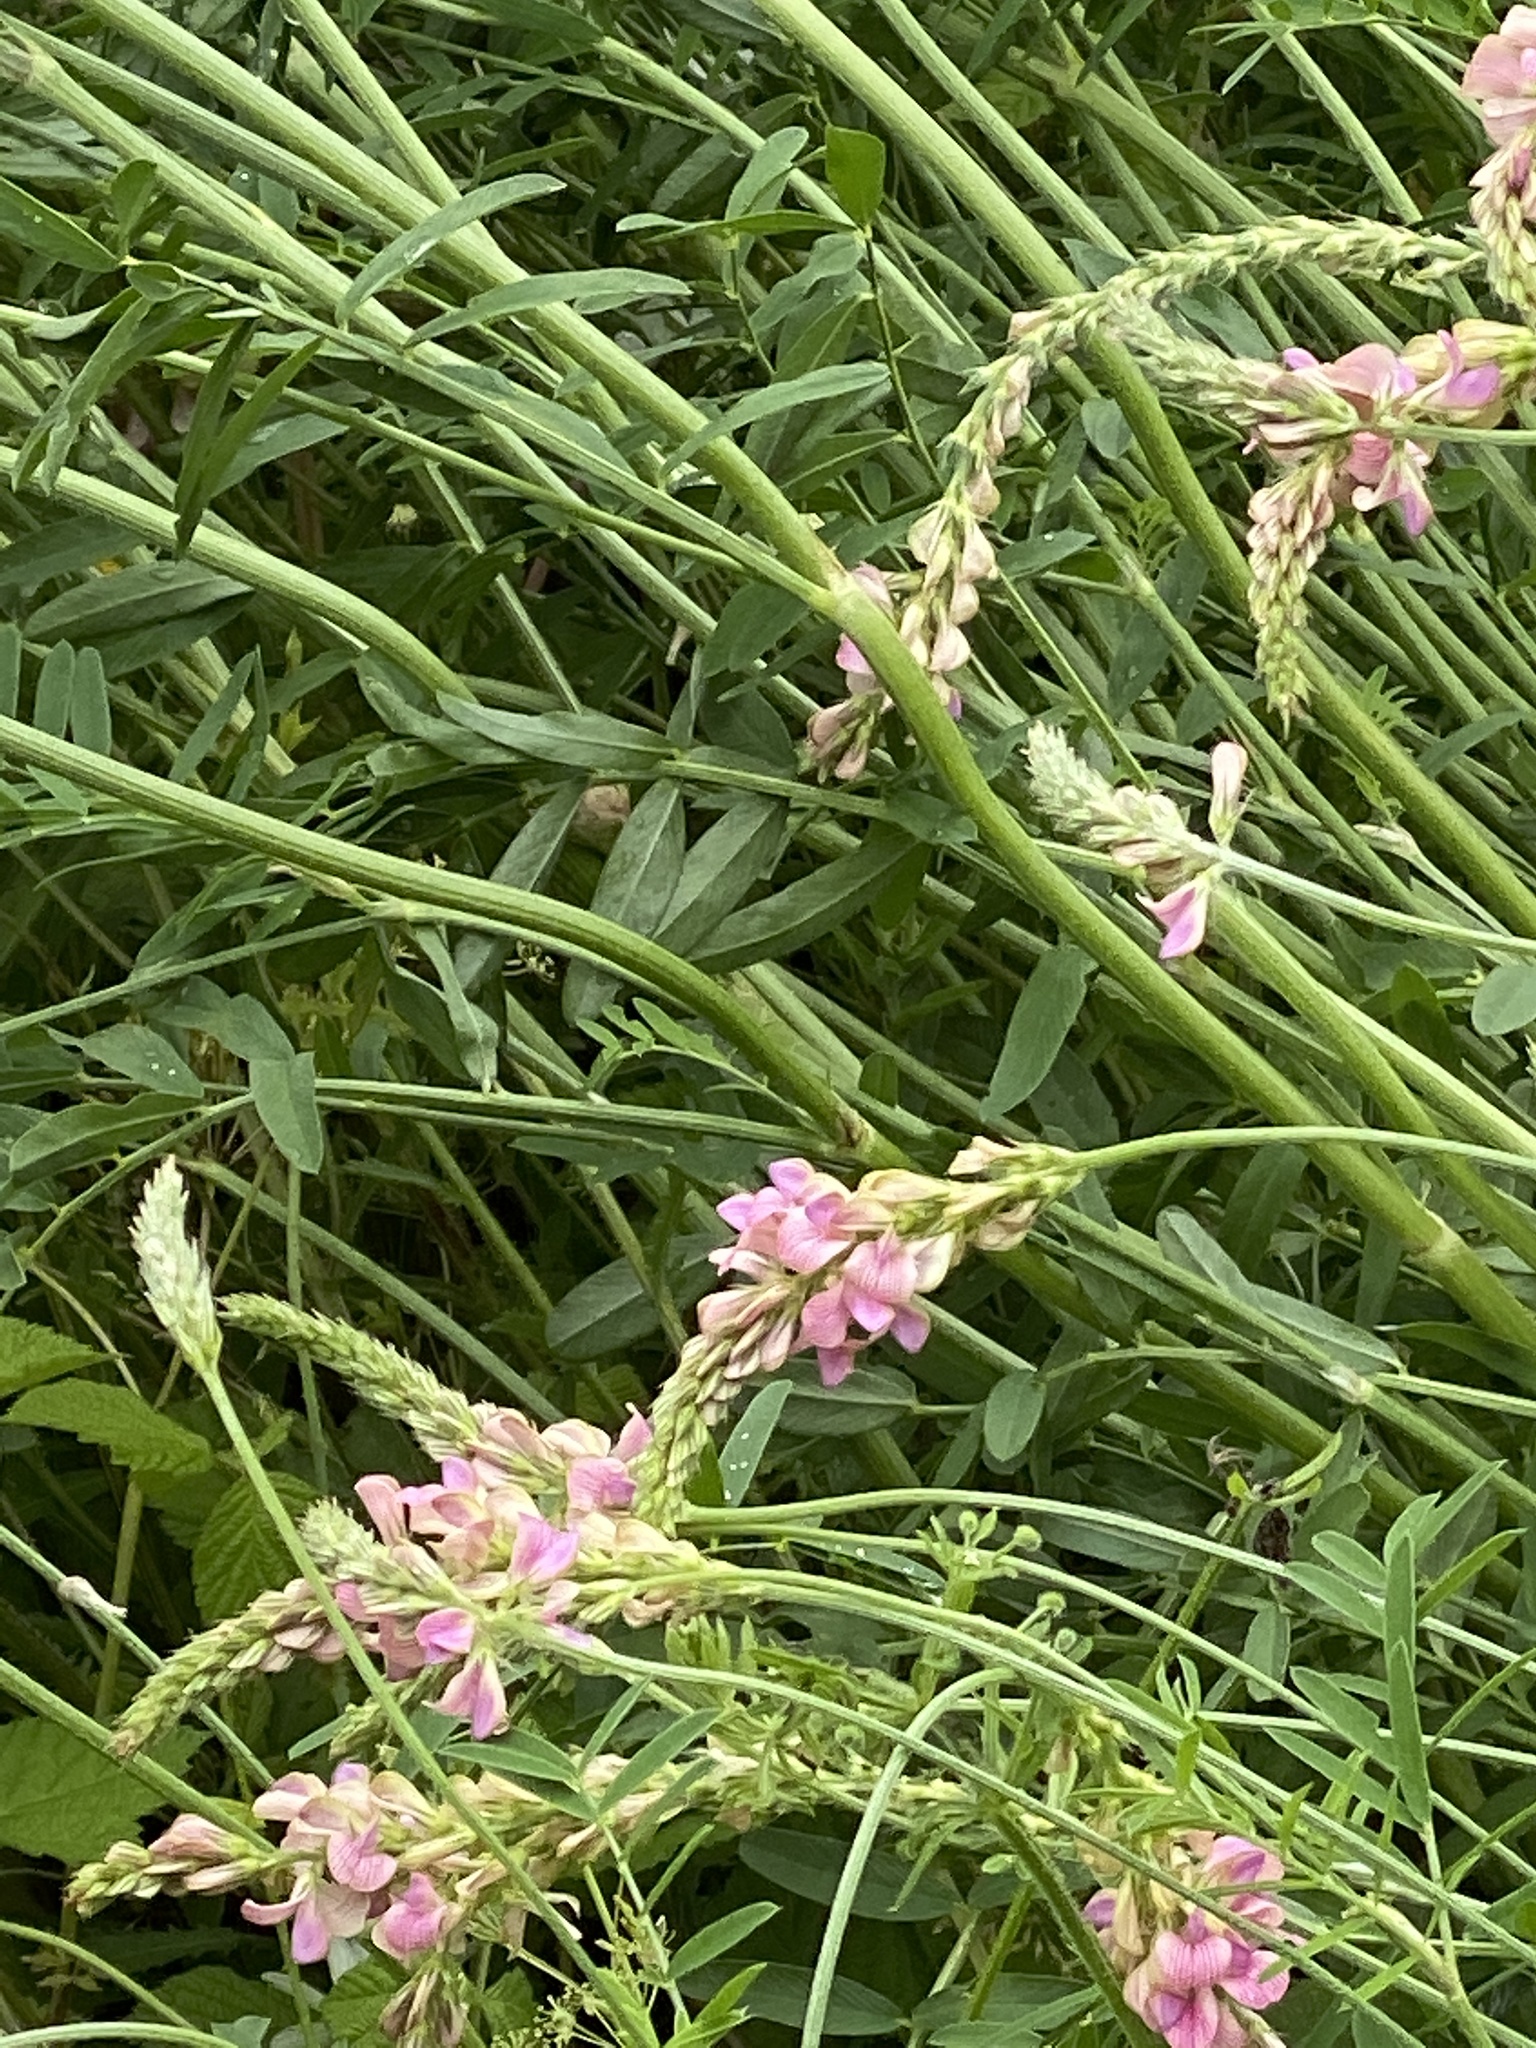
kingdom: Plantae
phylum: Tracheophyta
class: Magnoliopsida
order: Fabales
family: Fabaceae
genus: Onobrychis
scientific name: Onobrychis viciifolia
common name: Sainfoin
